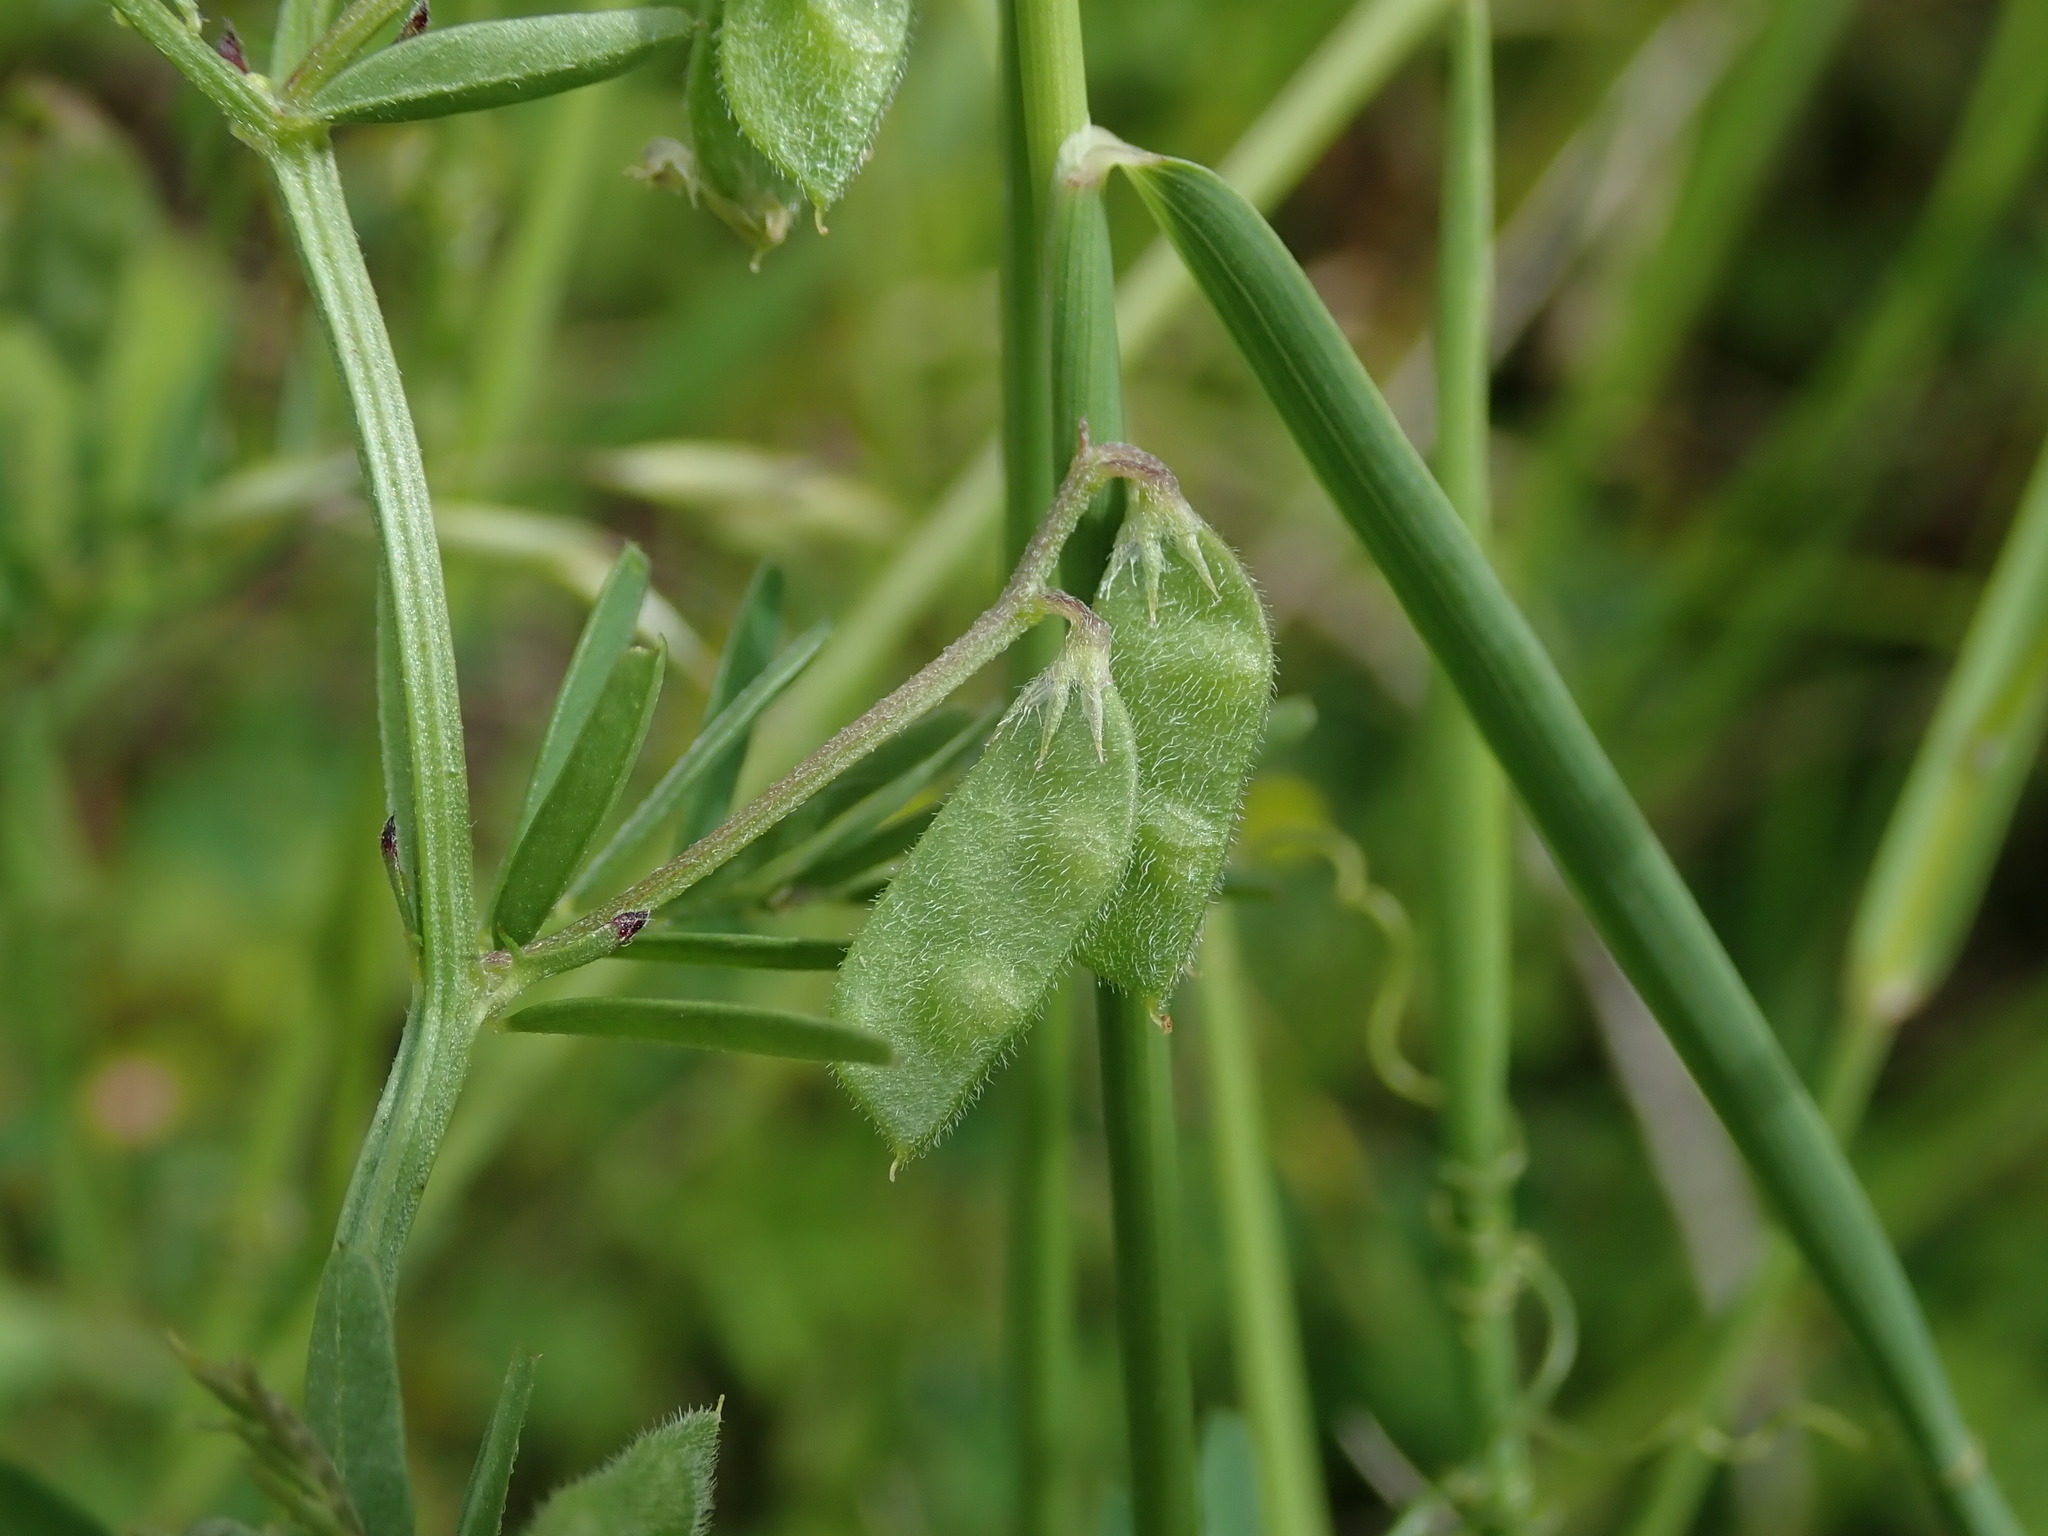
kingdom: Plantae
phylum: Tracheophyta
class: Magnoliopsida
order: Fabales
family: Fabaceae
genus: Vicia
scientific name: Vicia hirsuta
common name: Tiny vetch
